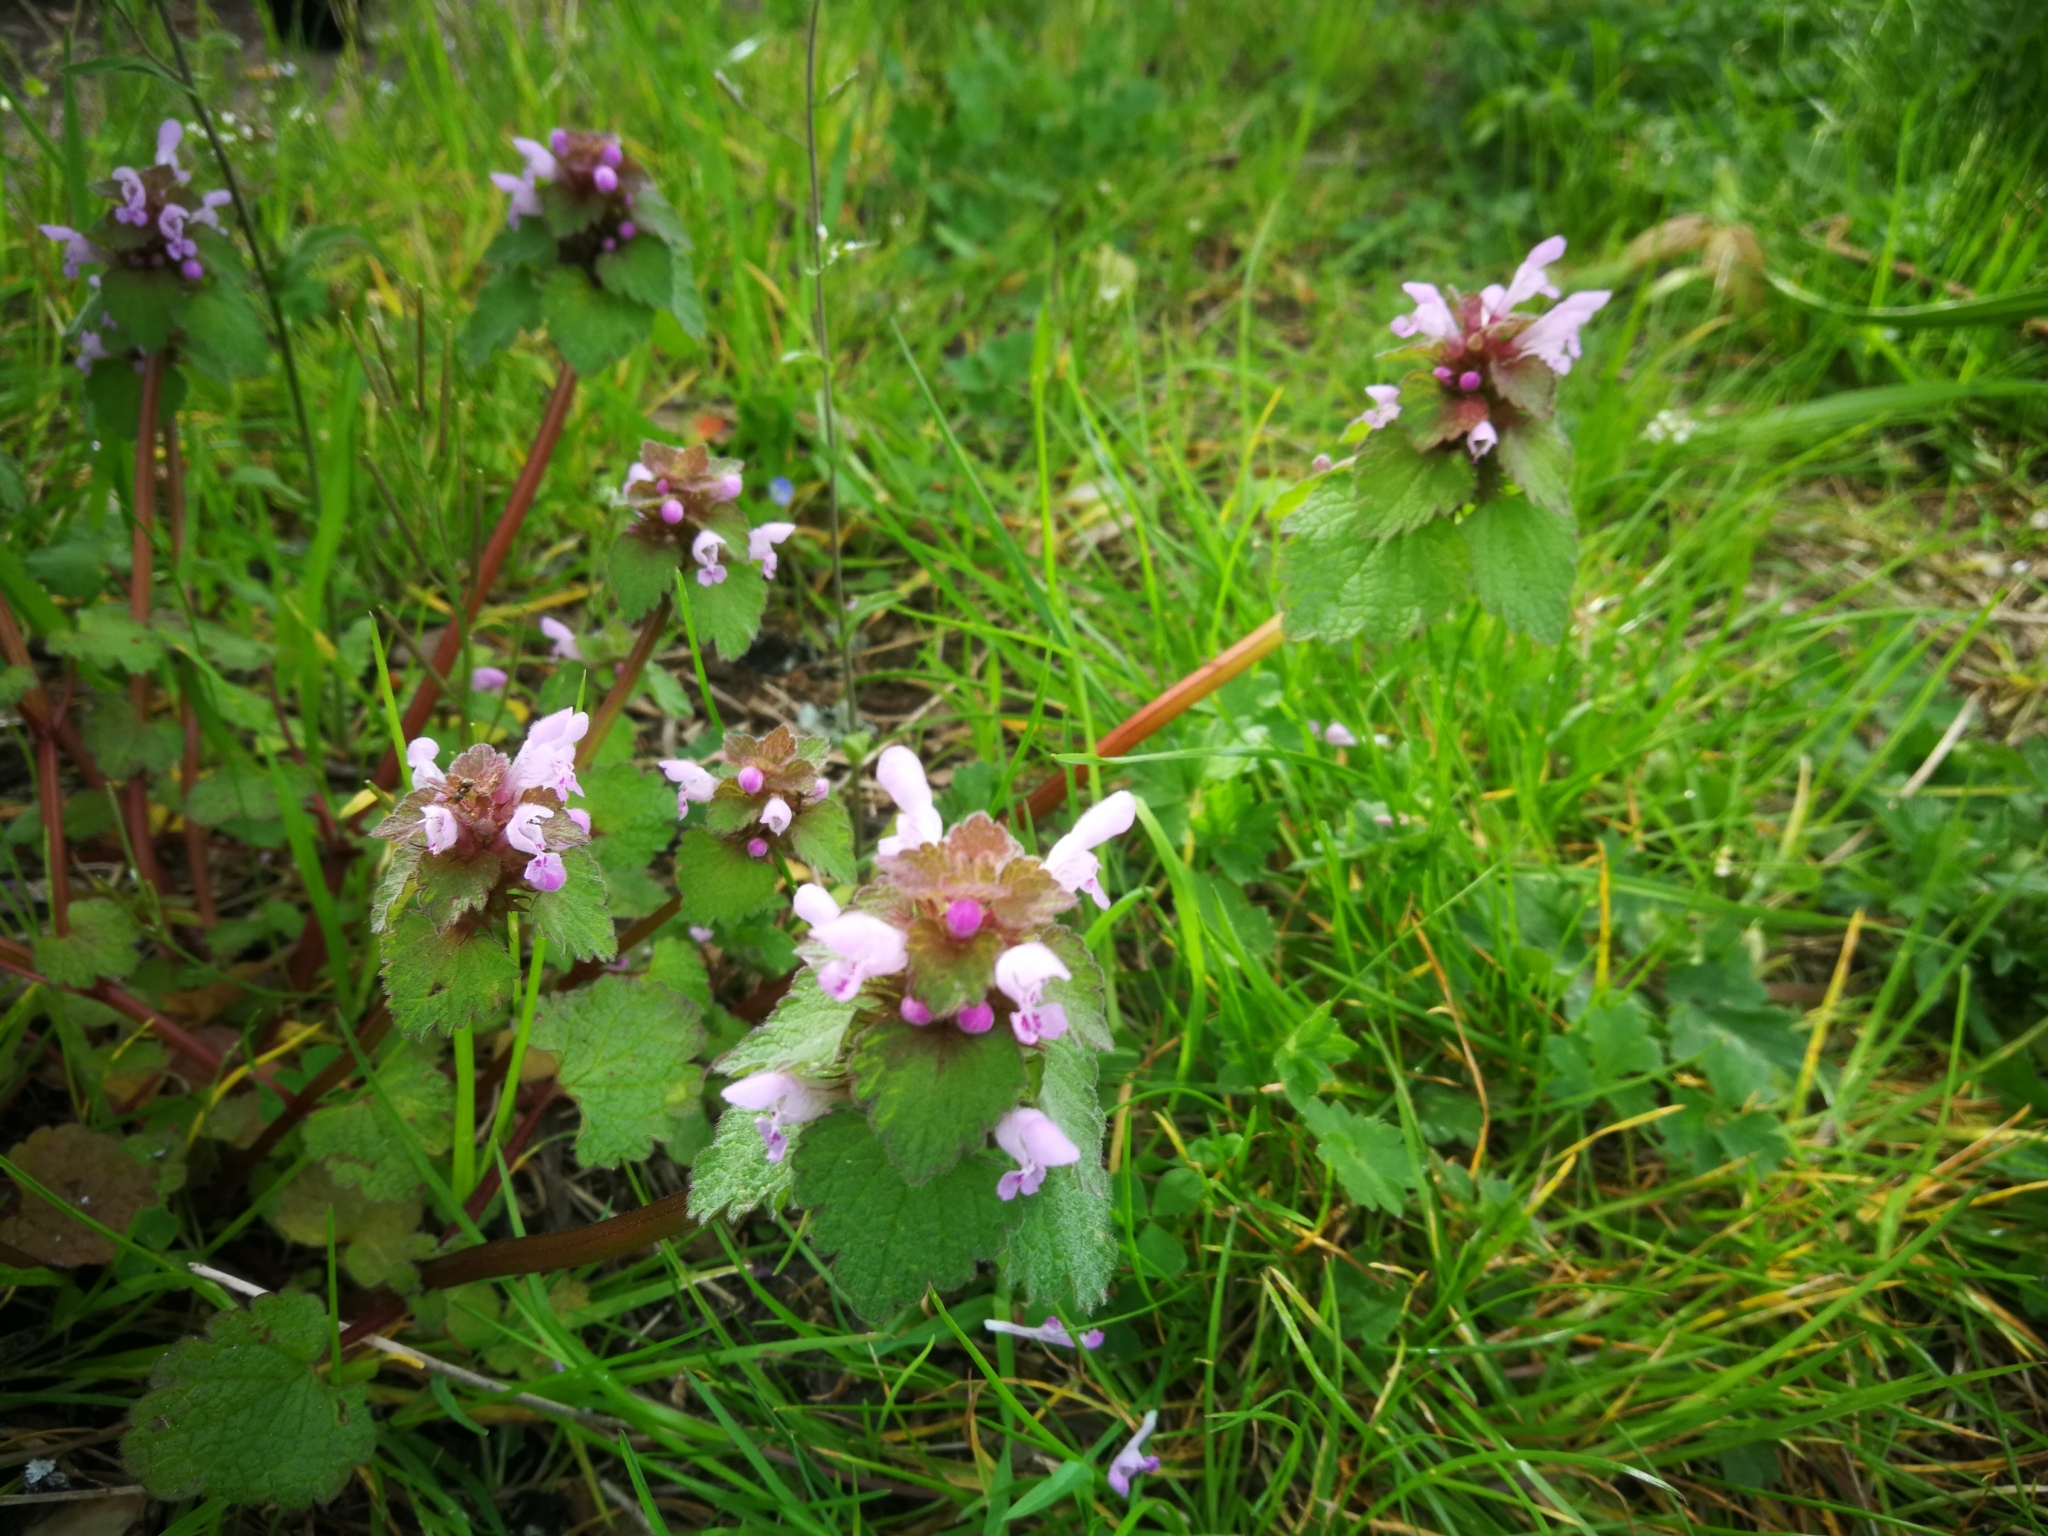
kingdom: Plantae
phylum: Tracheophyta
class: Magnoliopsida
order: Lamiales
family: Lamiaceae
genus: Lamium
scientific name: Lamium purpureum
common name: Red dead-nettle
